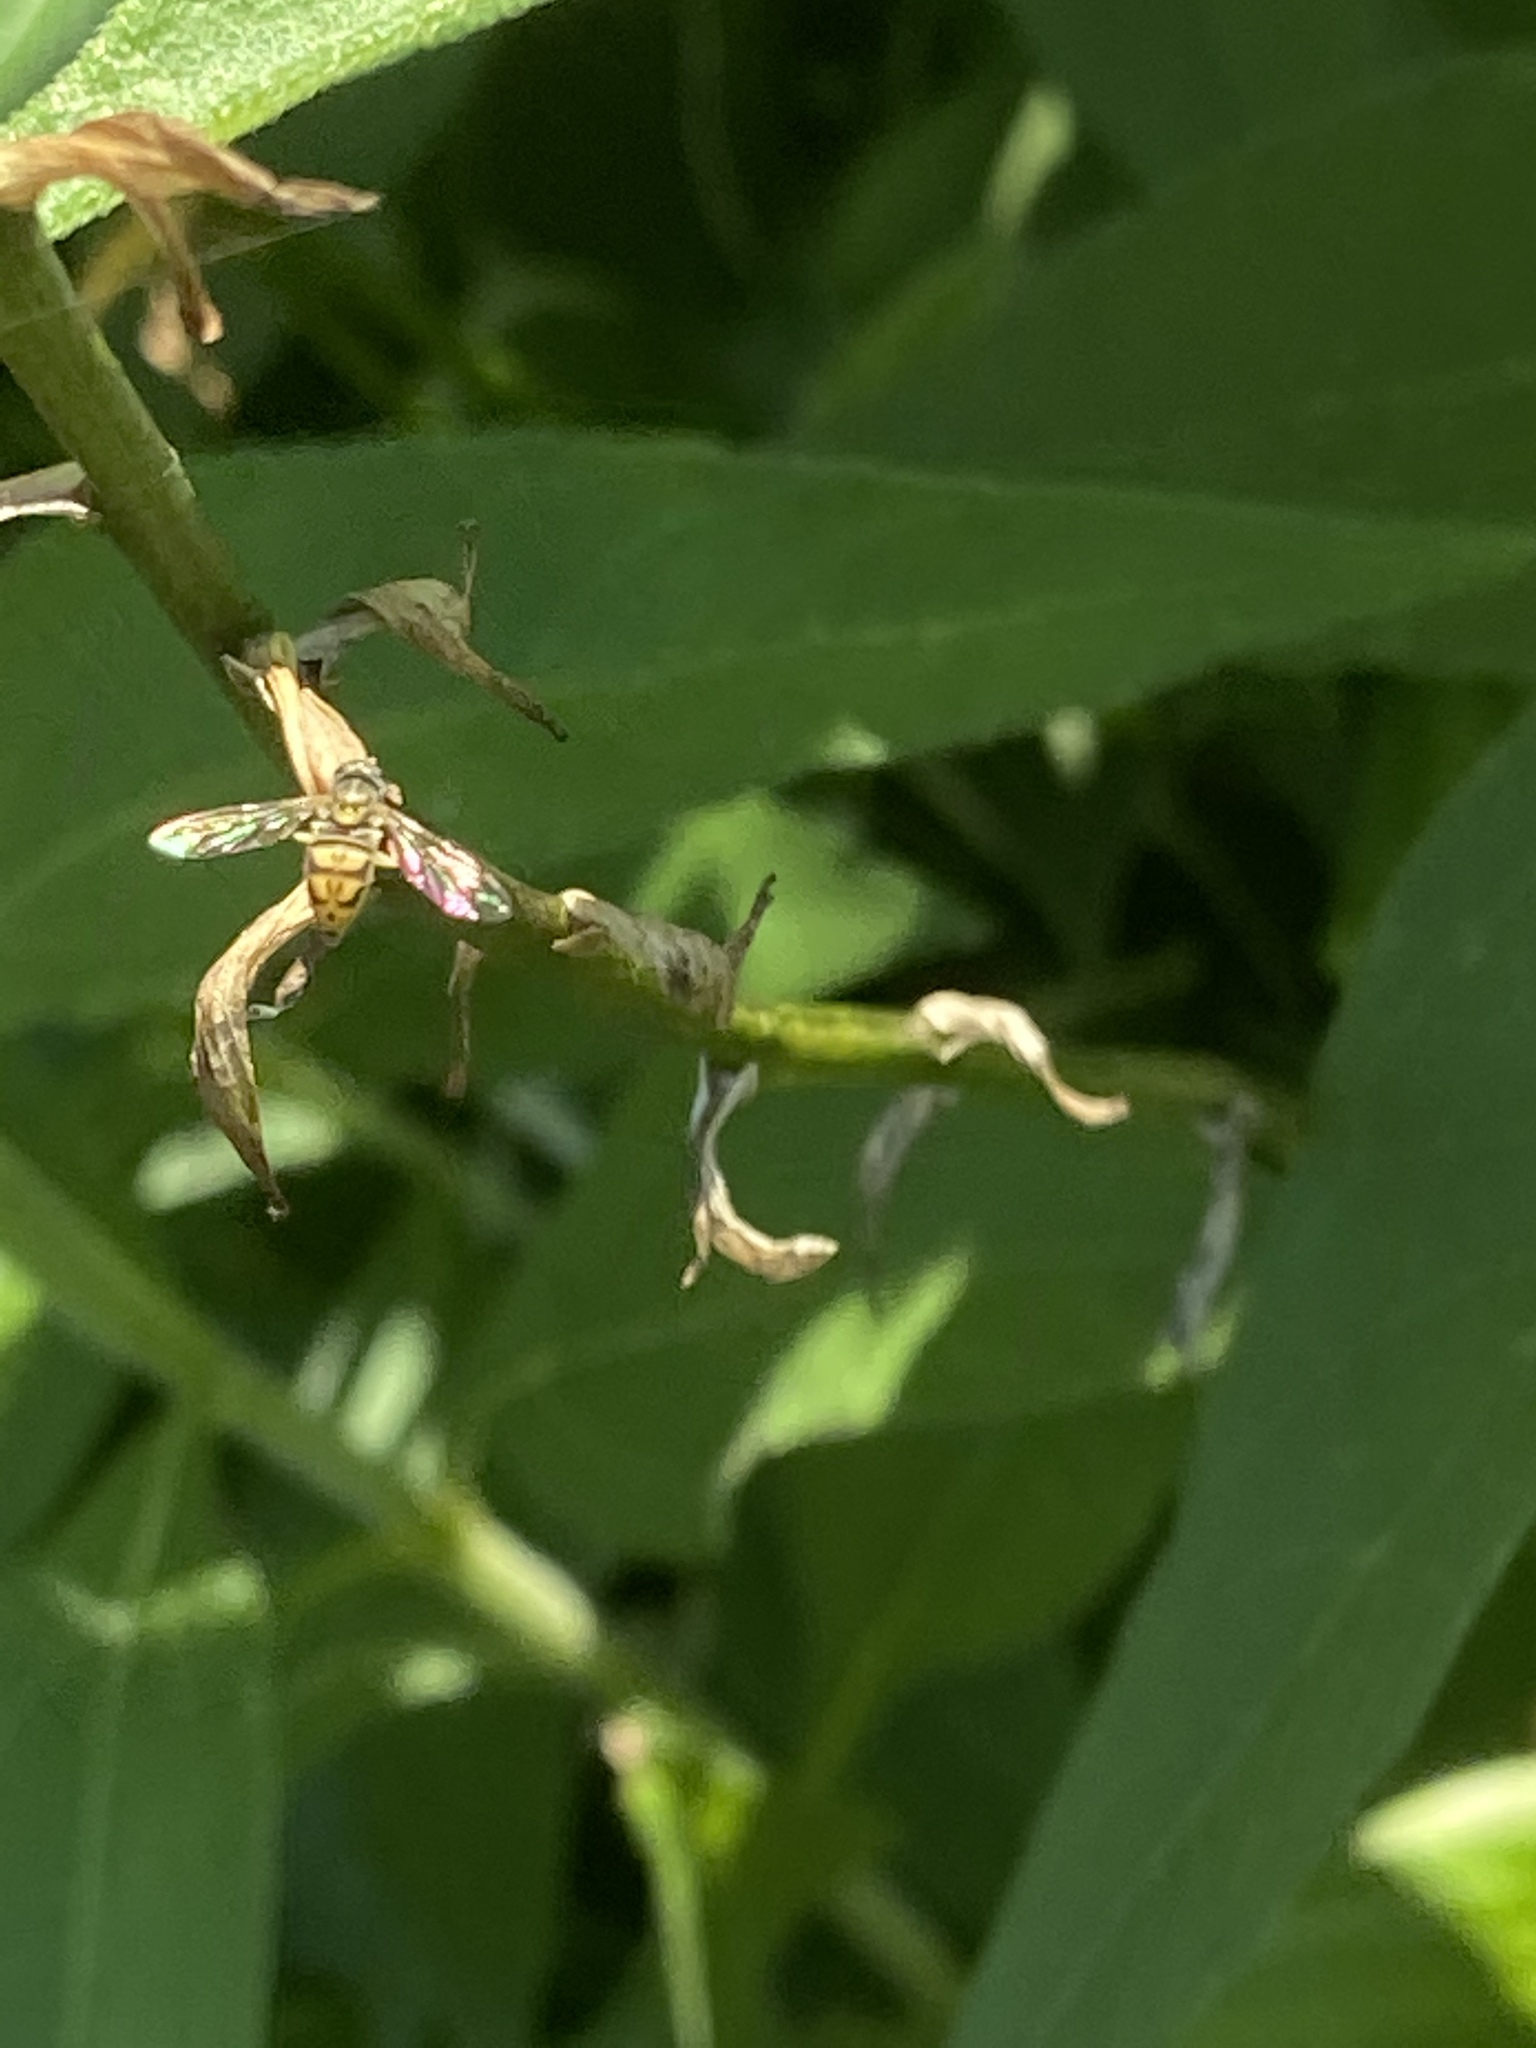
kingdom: Animalia
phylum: Arthropoda
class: Insecta
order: Diptera
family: Syrphidae
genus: Toxomerus
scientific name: Toxomerus marginatus
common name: Syrphid fly
